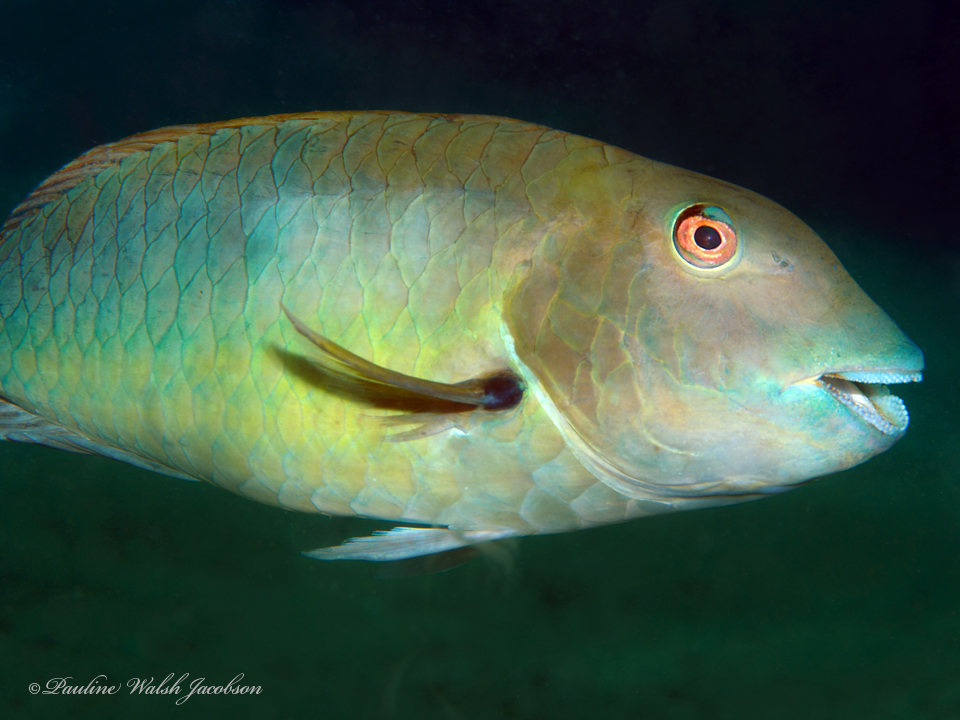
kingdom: Animalia
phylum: Chordata
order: Perciformes
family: Scaridae
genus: Sparisoma
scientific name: Sparisoma rubripinne
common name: Redfin parrotfish
